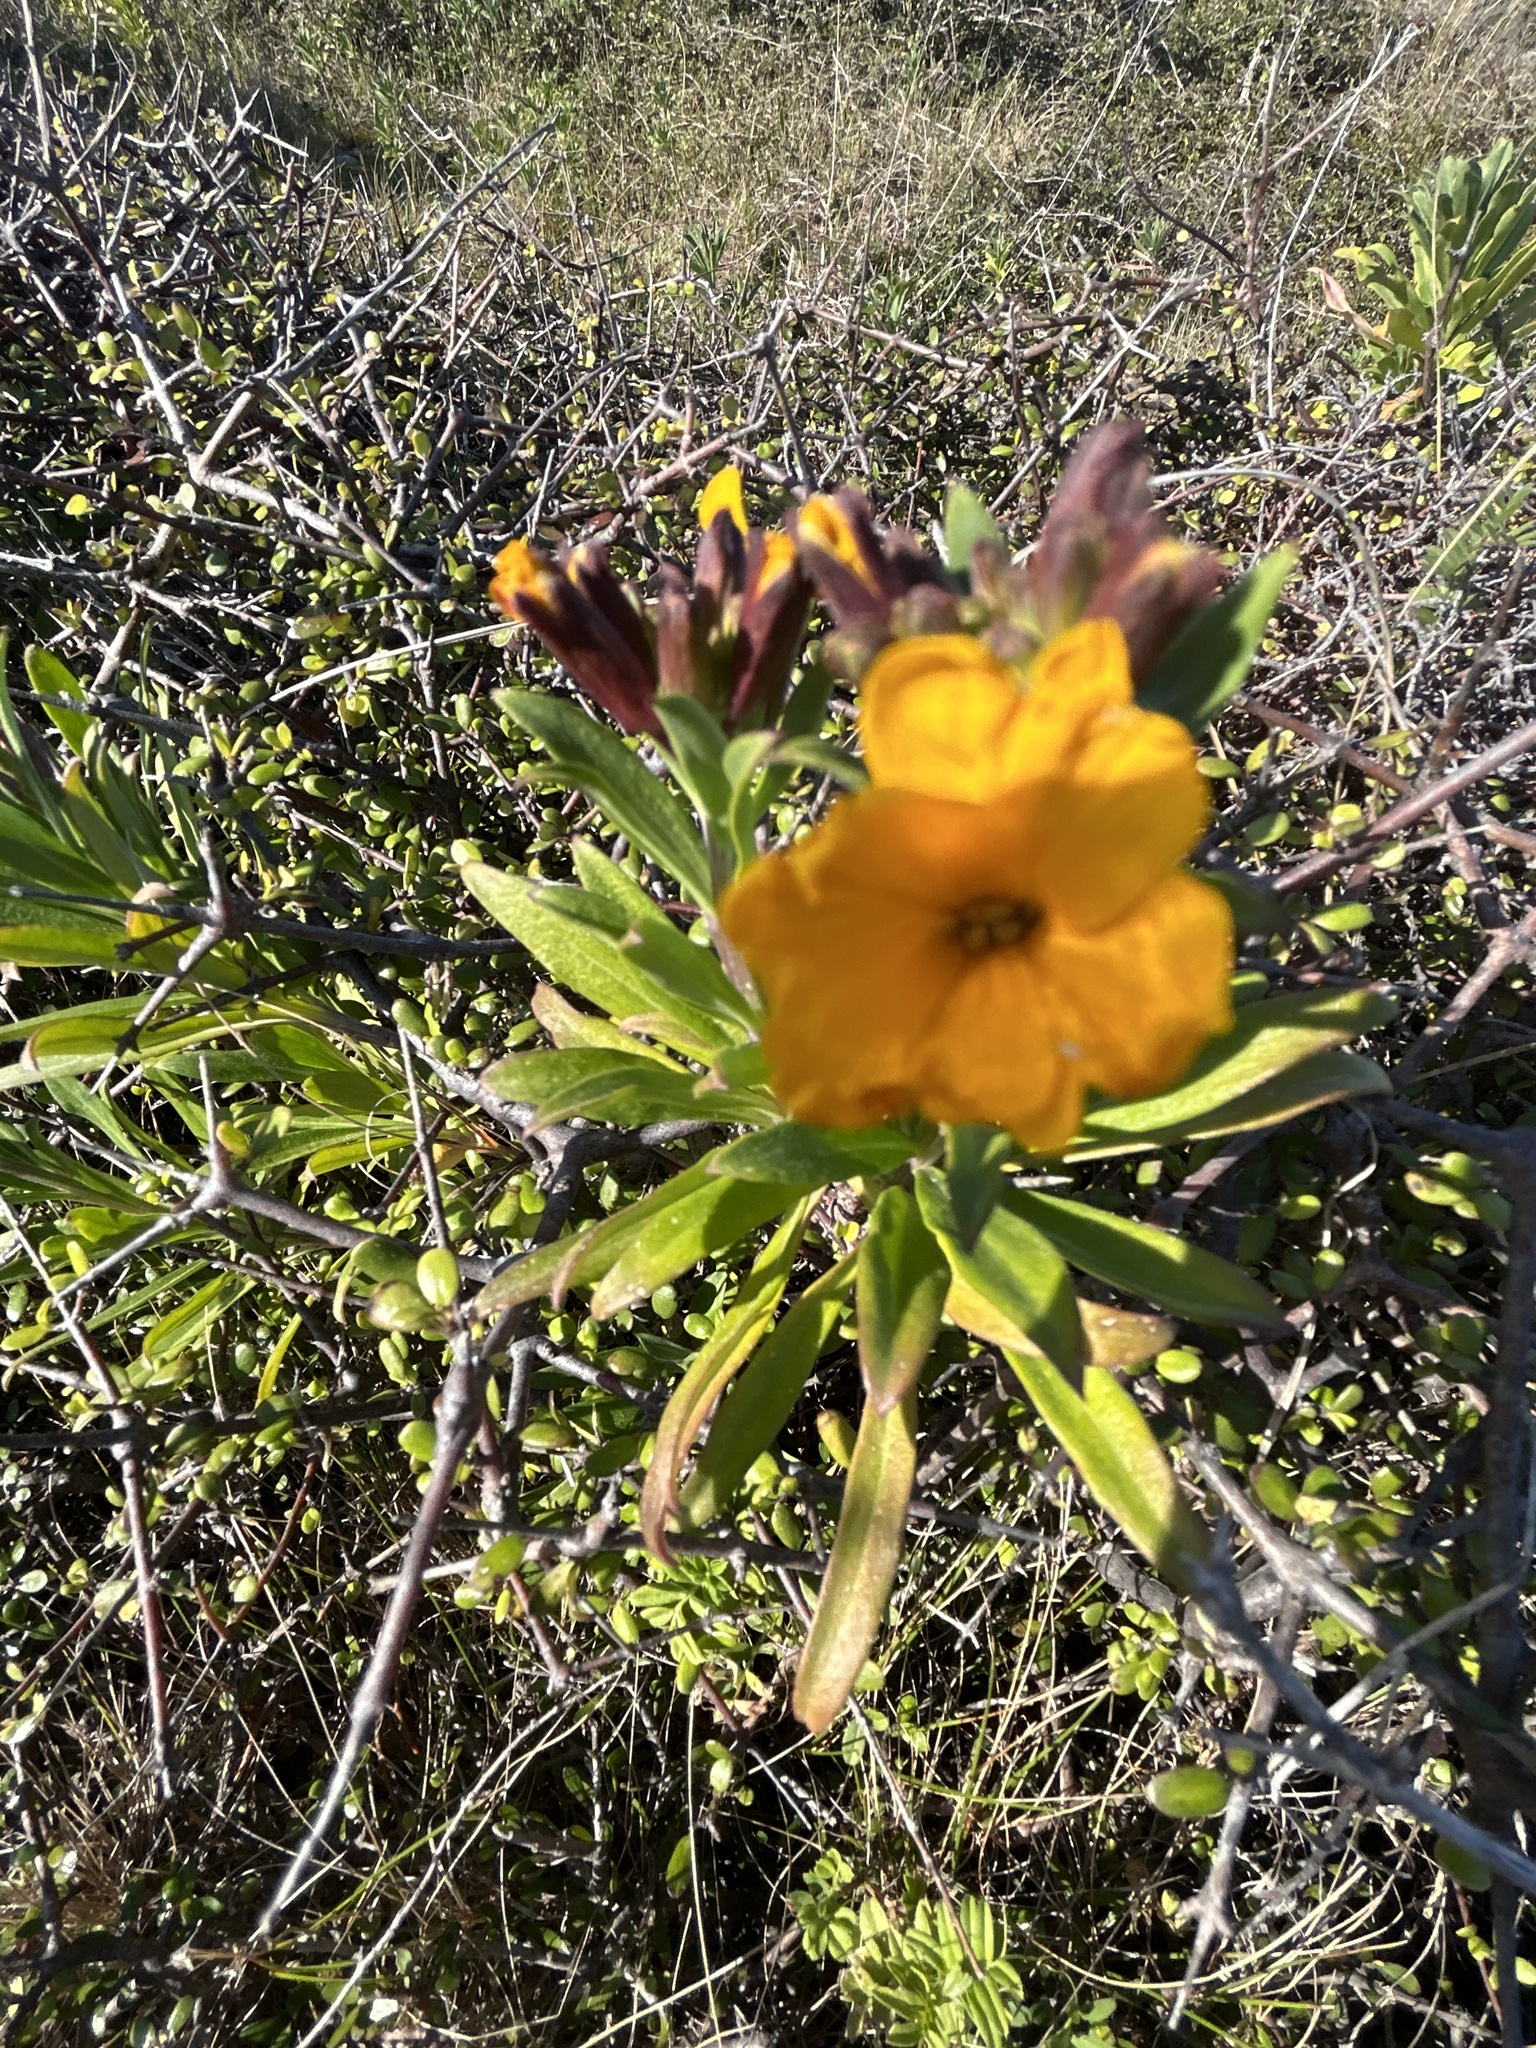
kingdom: Plantae
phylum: Tracheophyta
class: Magnoliopsida
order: Brassicales
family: Brassicaceae
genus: Erysimum
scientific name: Erysimum cheiri
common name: Wallflower
